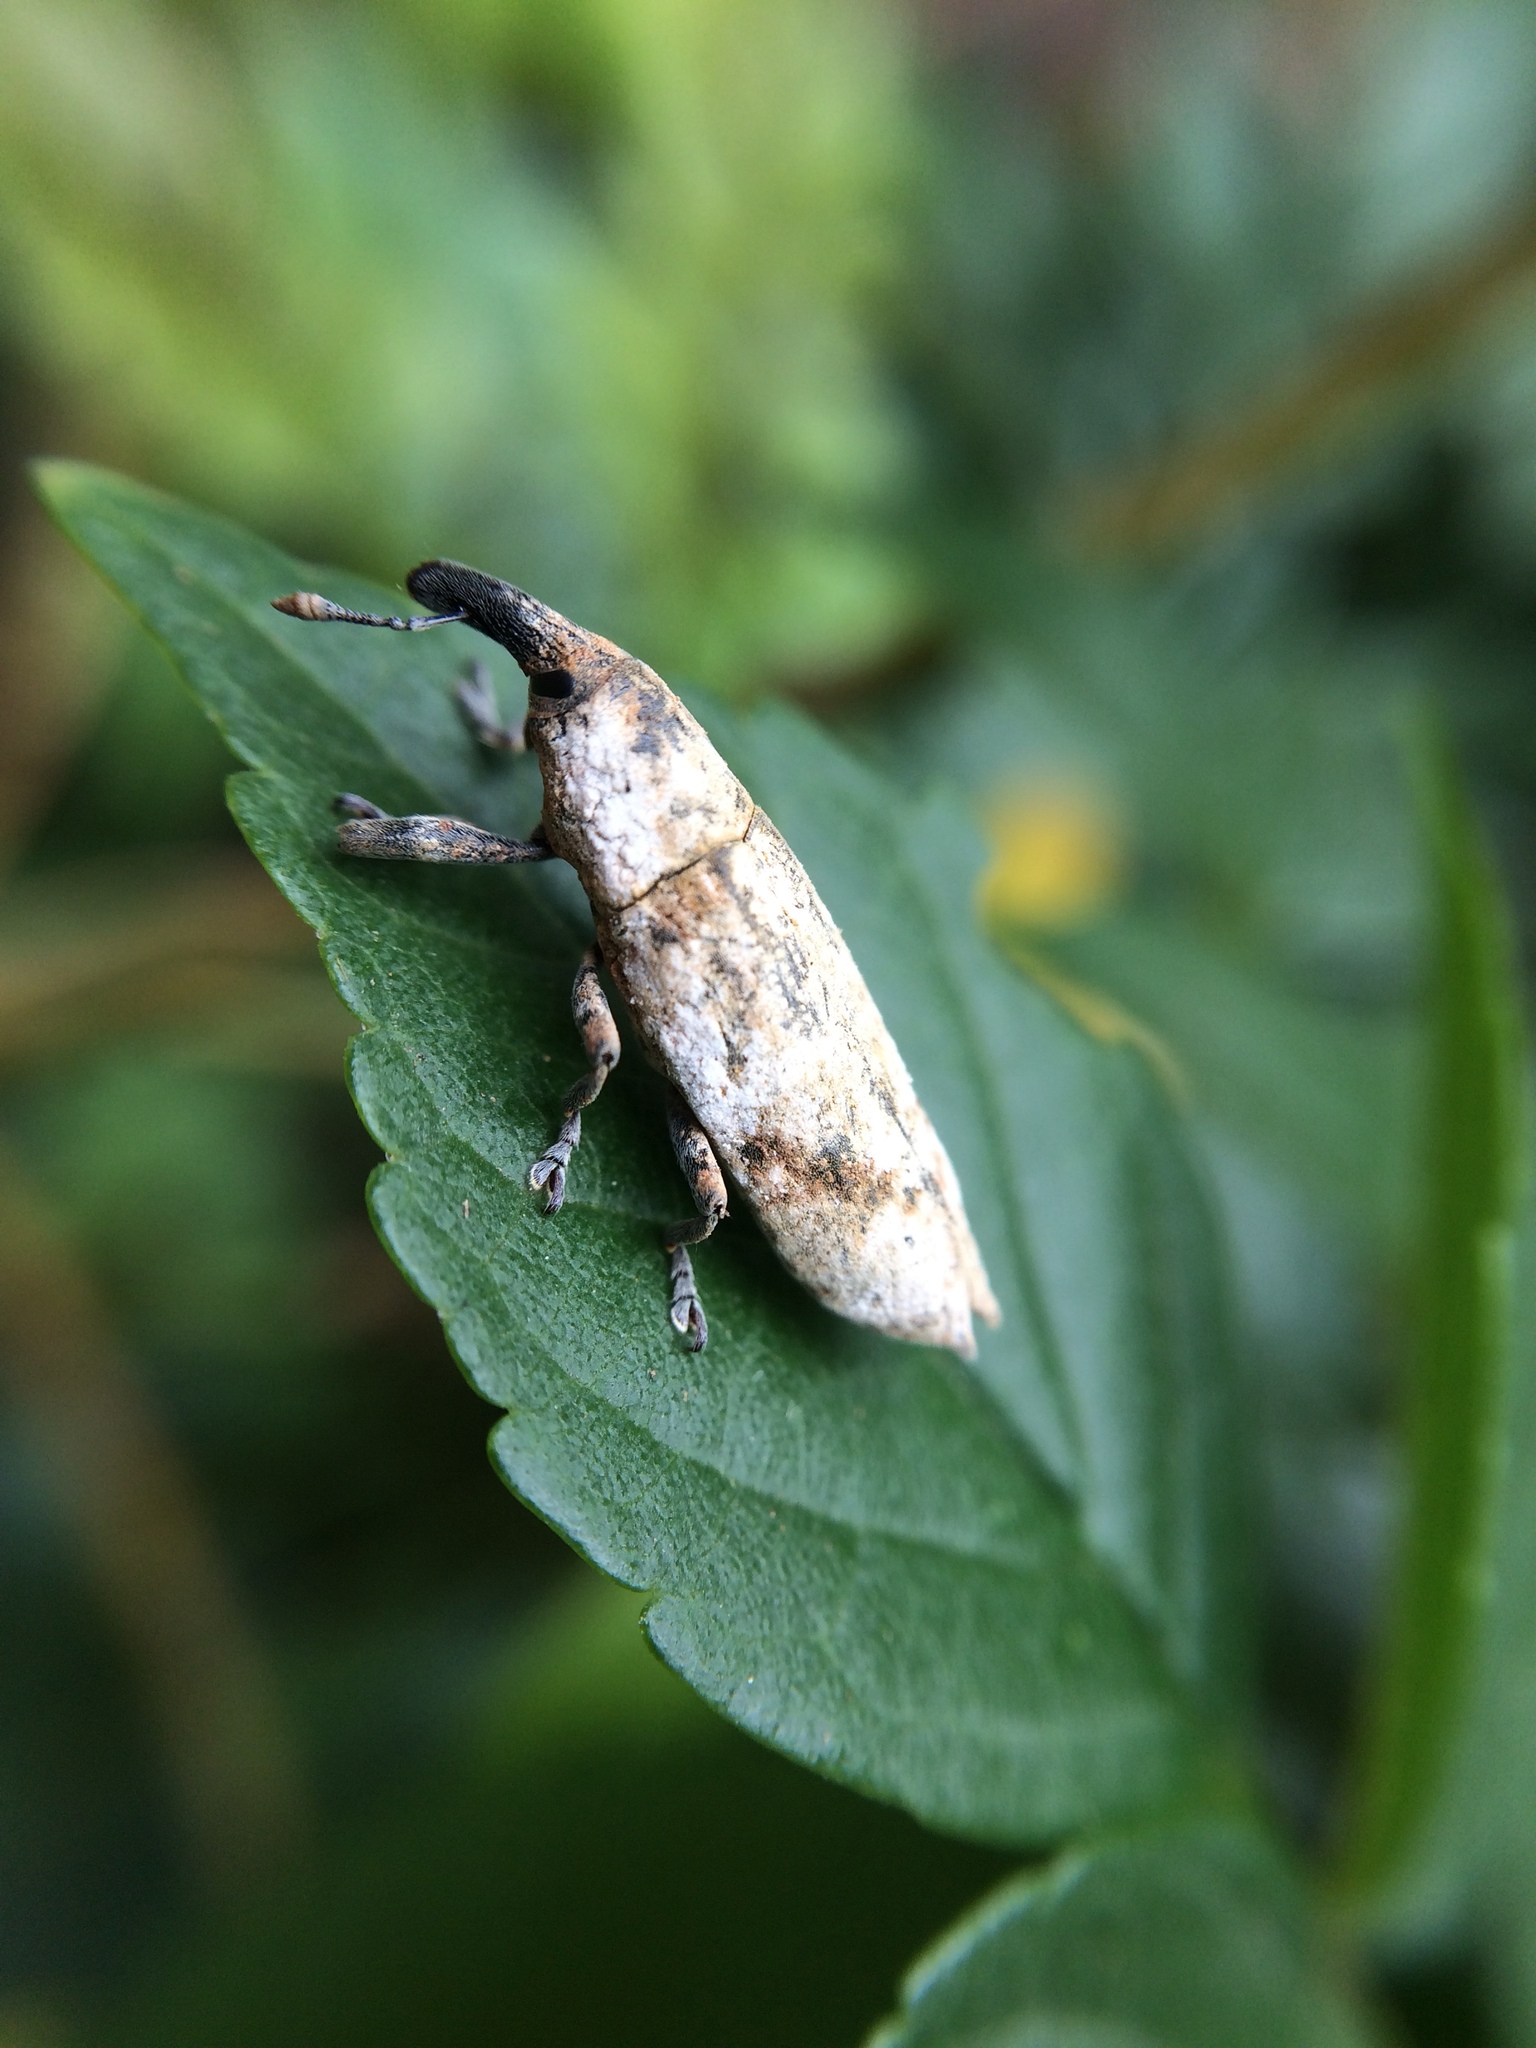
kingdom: Animalia
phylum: Arthropoda
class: Insecta
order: Coleoptera
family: Curculionidae
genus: Gasteroclisus
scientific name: Gasteroclisus
